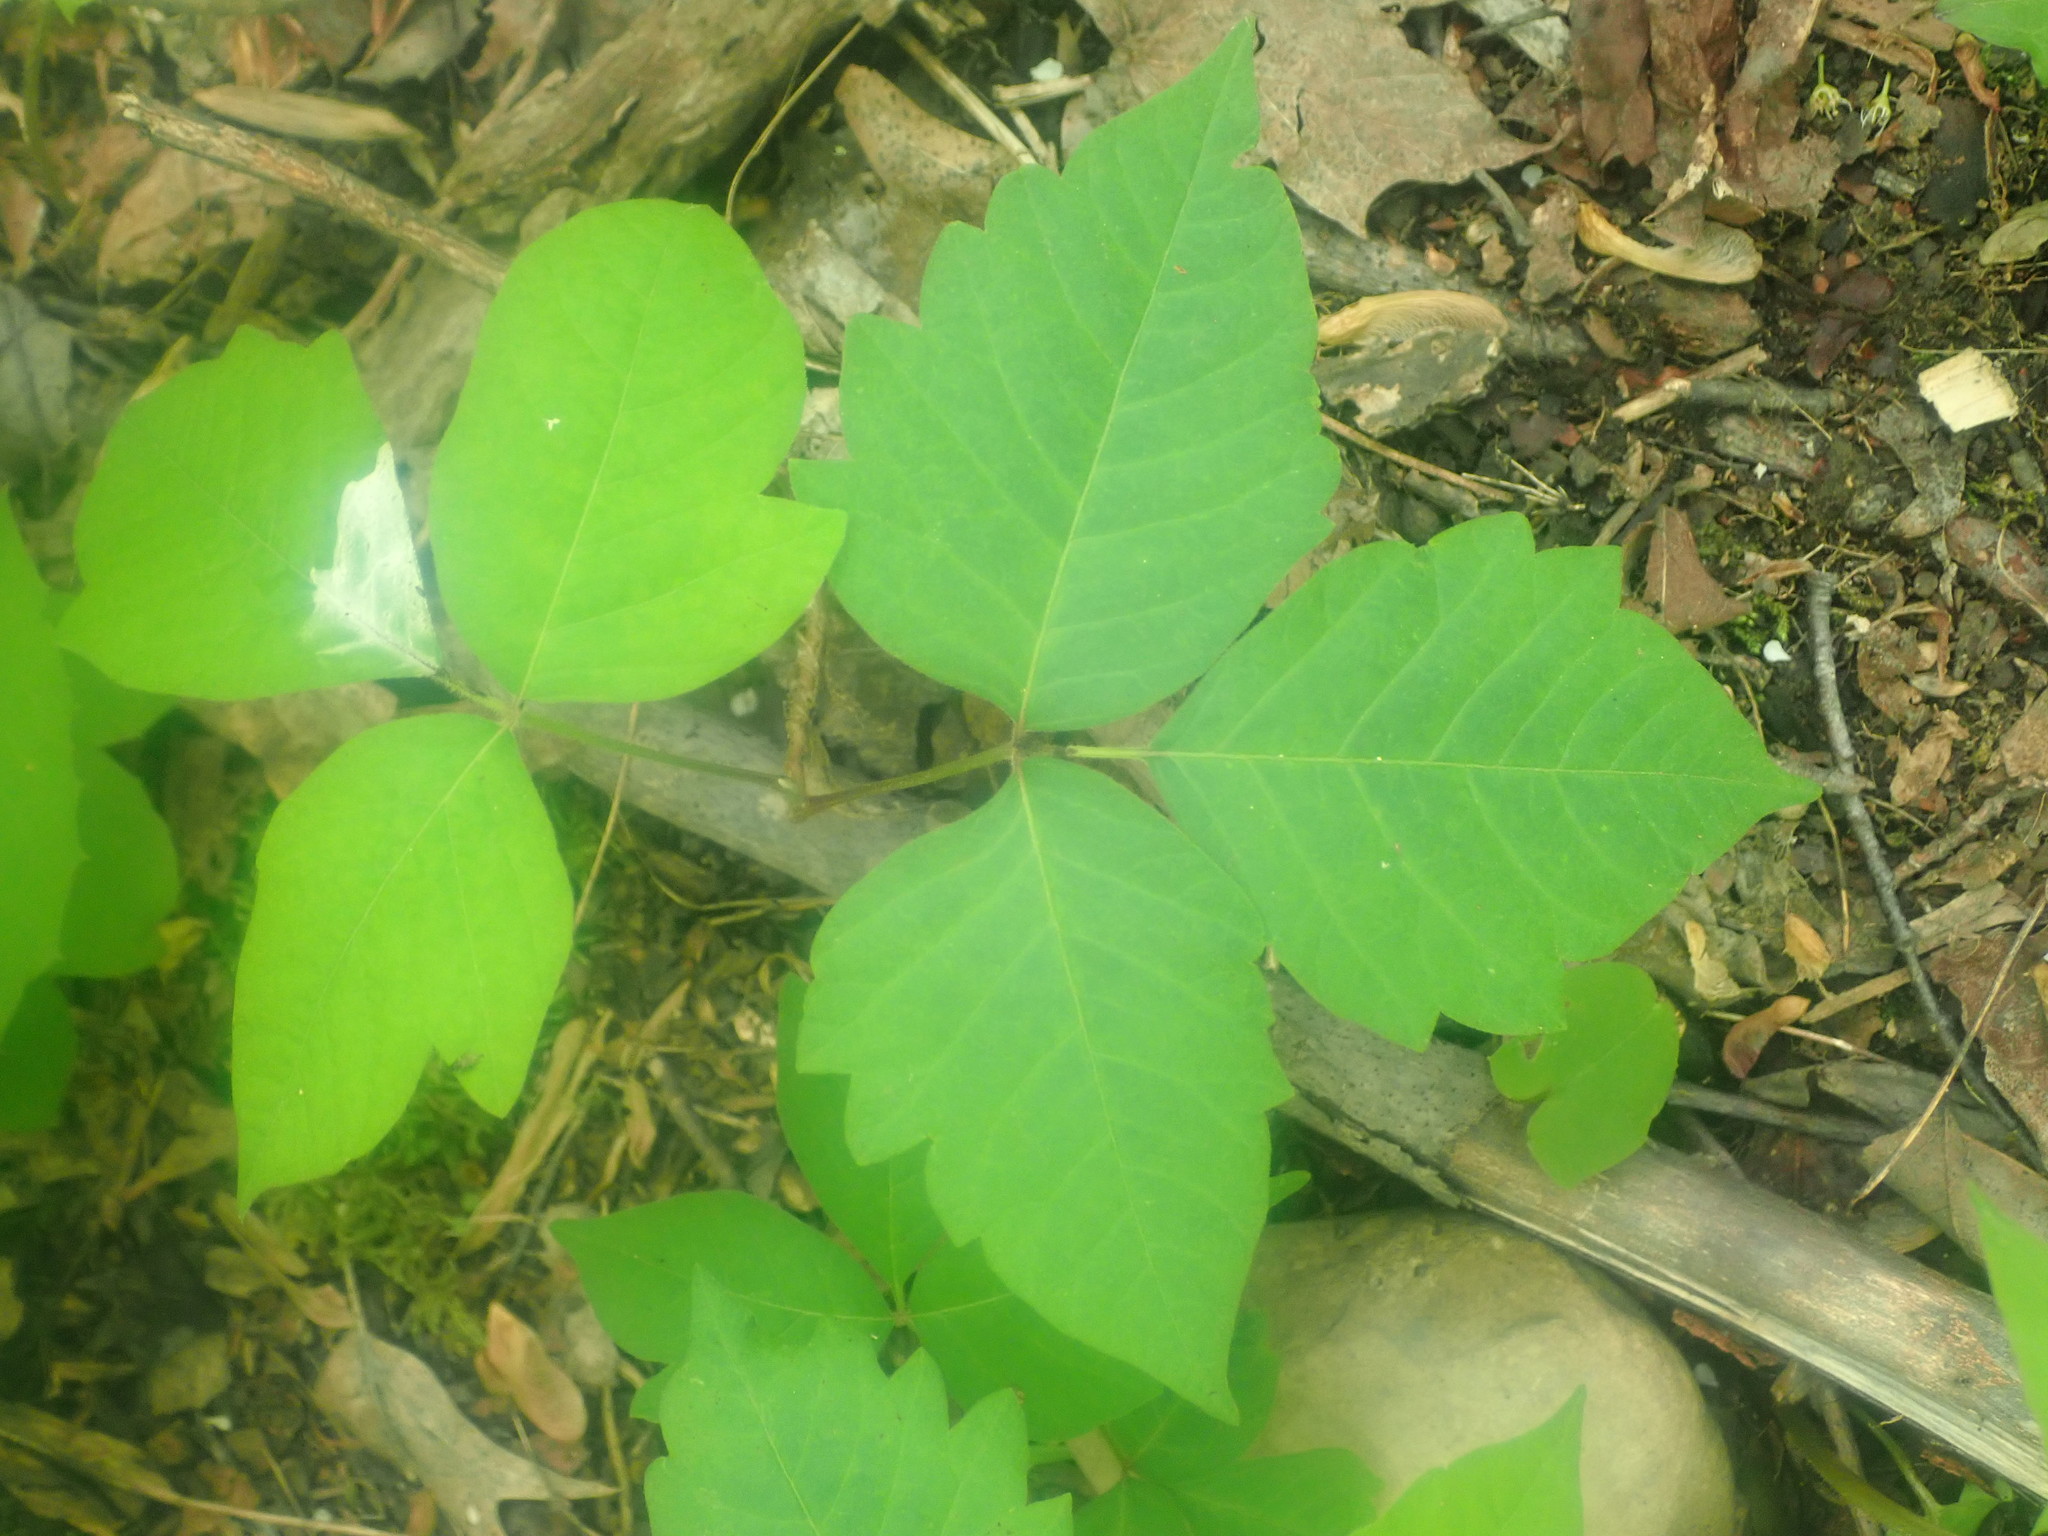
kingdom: Plantae
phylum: Tracheophyta
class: Magnoliopsida
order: Sapindales
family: Anacardiaceae
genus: Toxicodendron
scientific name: Toxicodendron radicans
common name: Poison ivy
